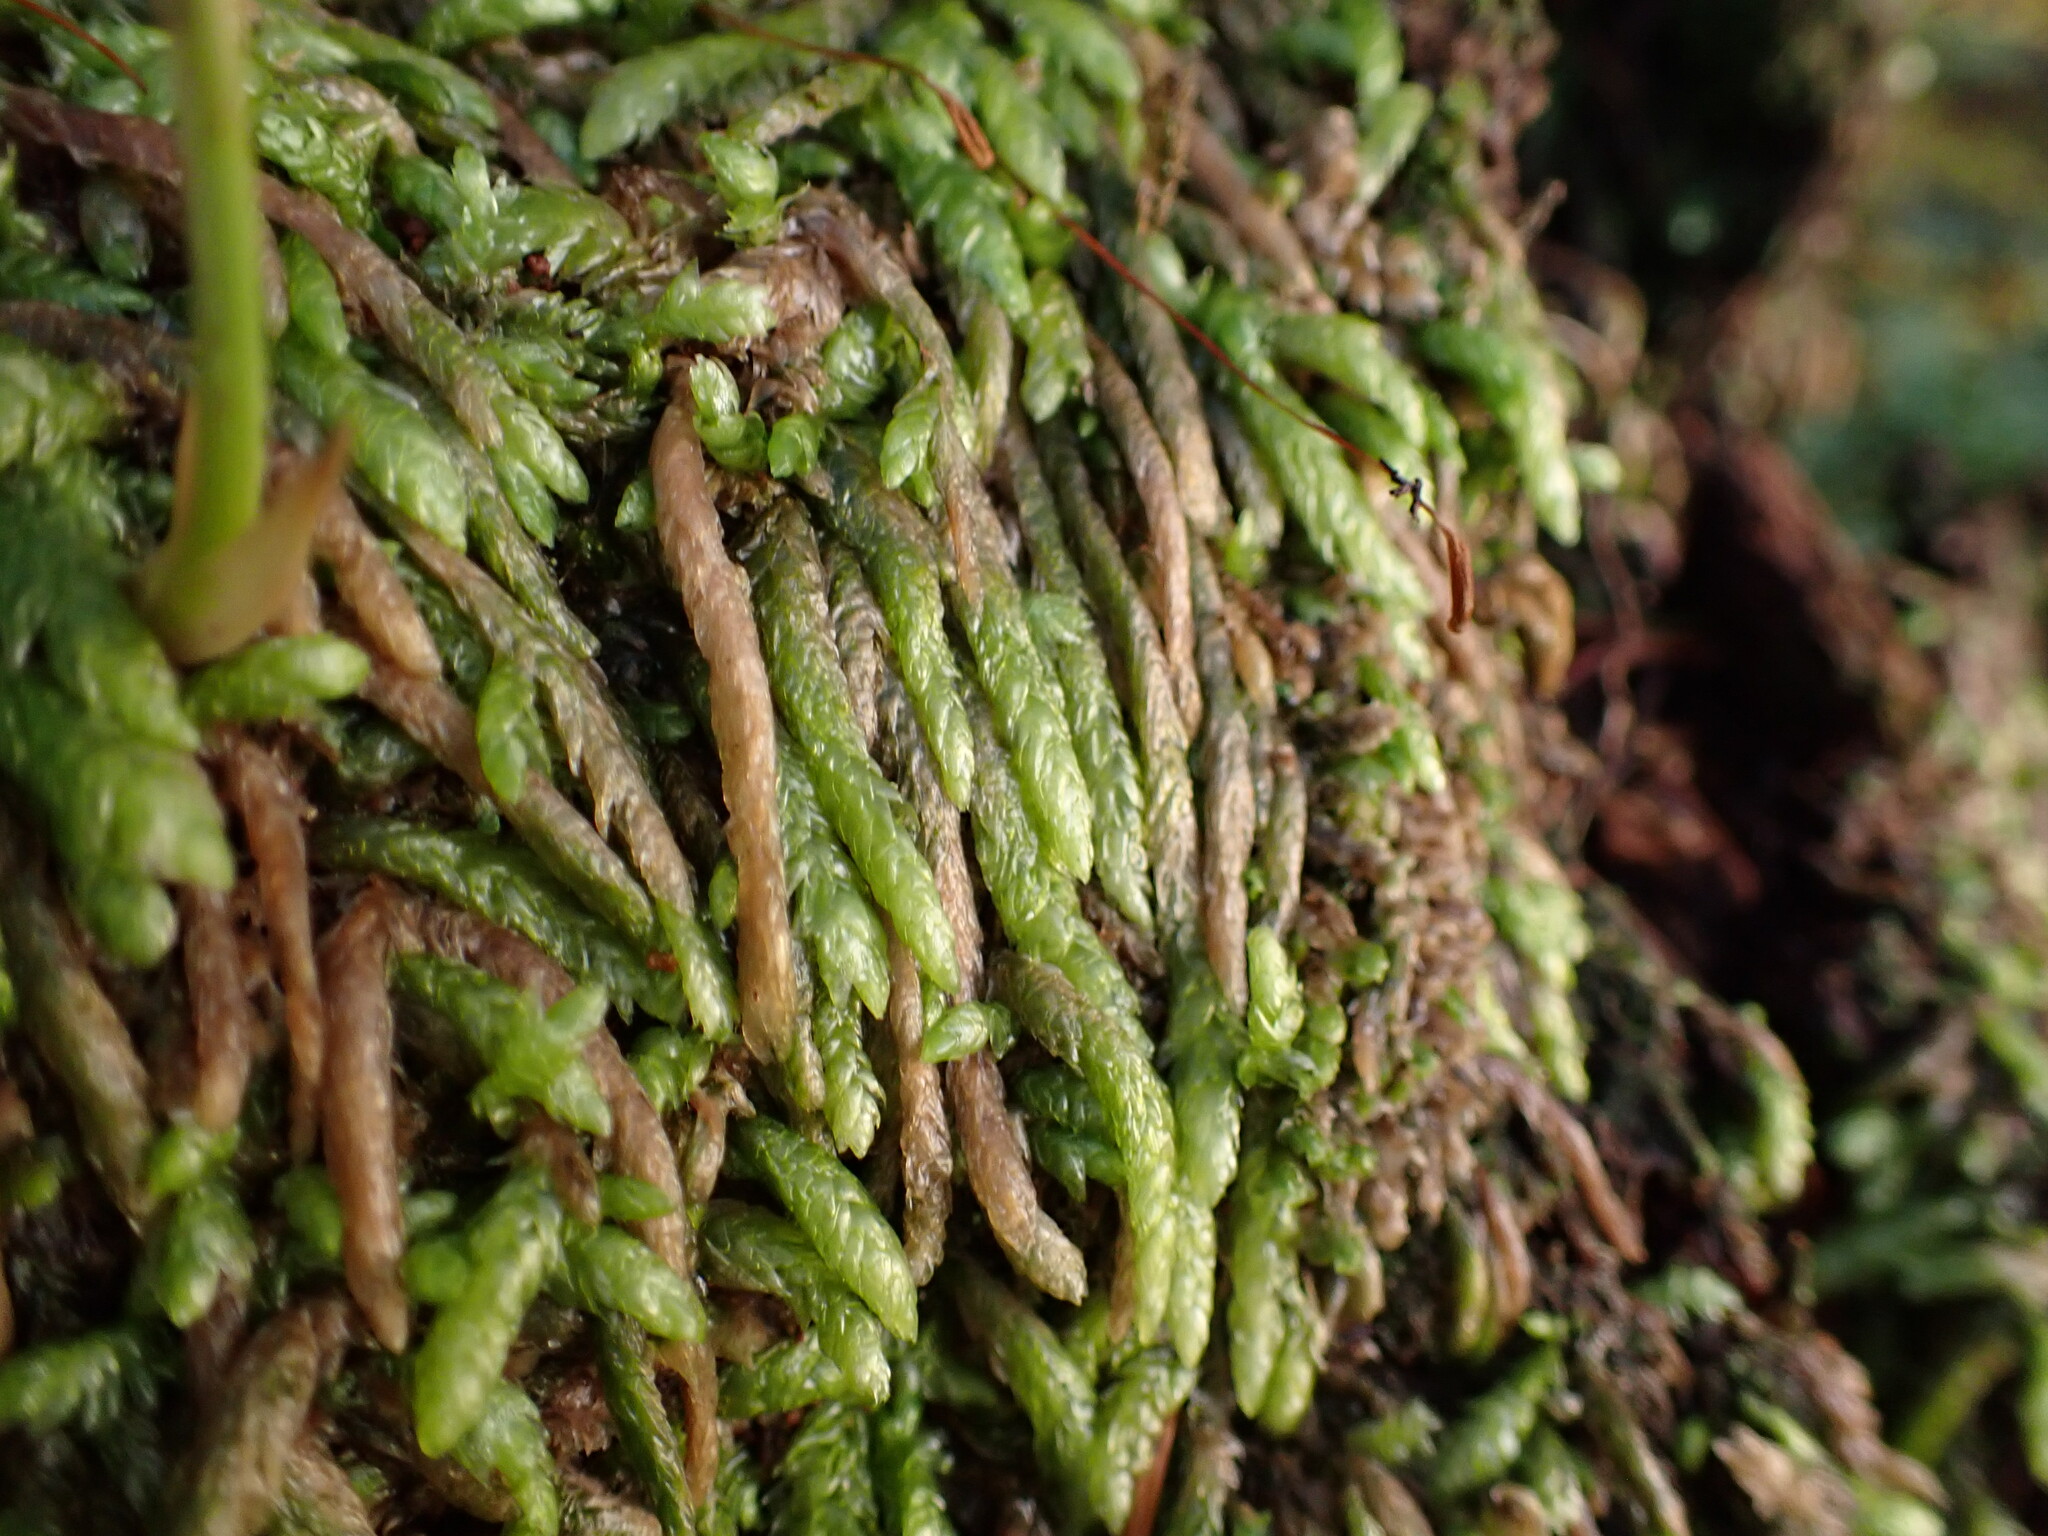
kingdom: Plantae
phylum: Bryophyta
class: Bryopsida
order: Hypnales
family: Plagiotheciaceae
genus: Plagiothecium
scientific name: Plagiothecium undulatum
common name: Waved silk-moss
